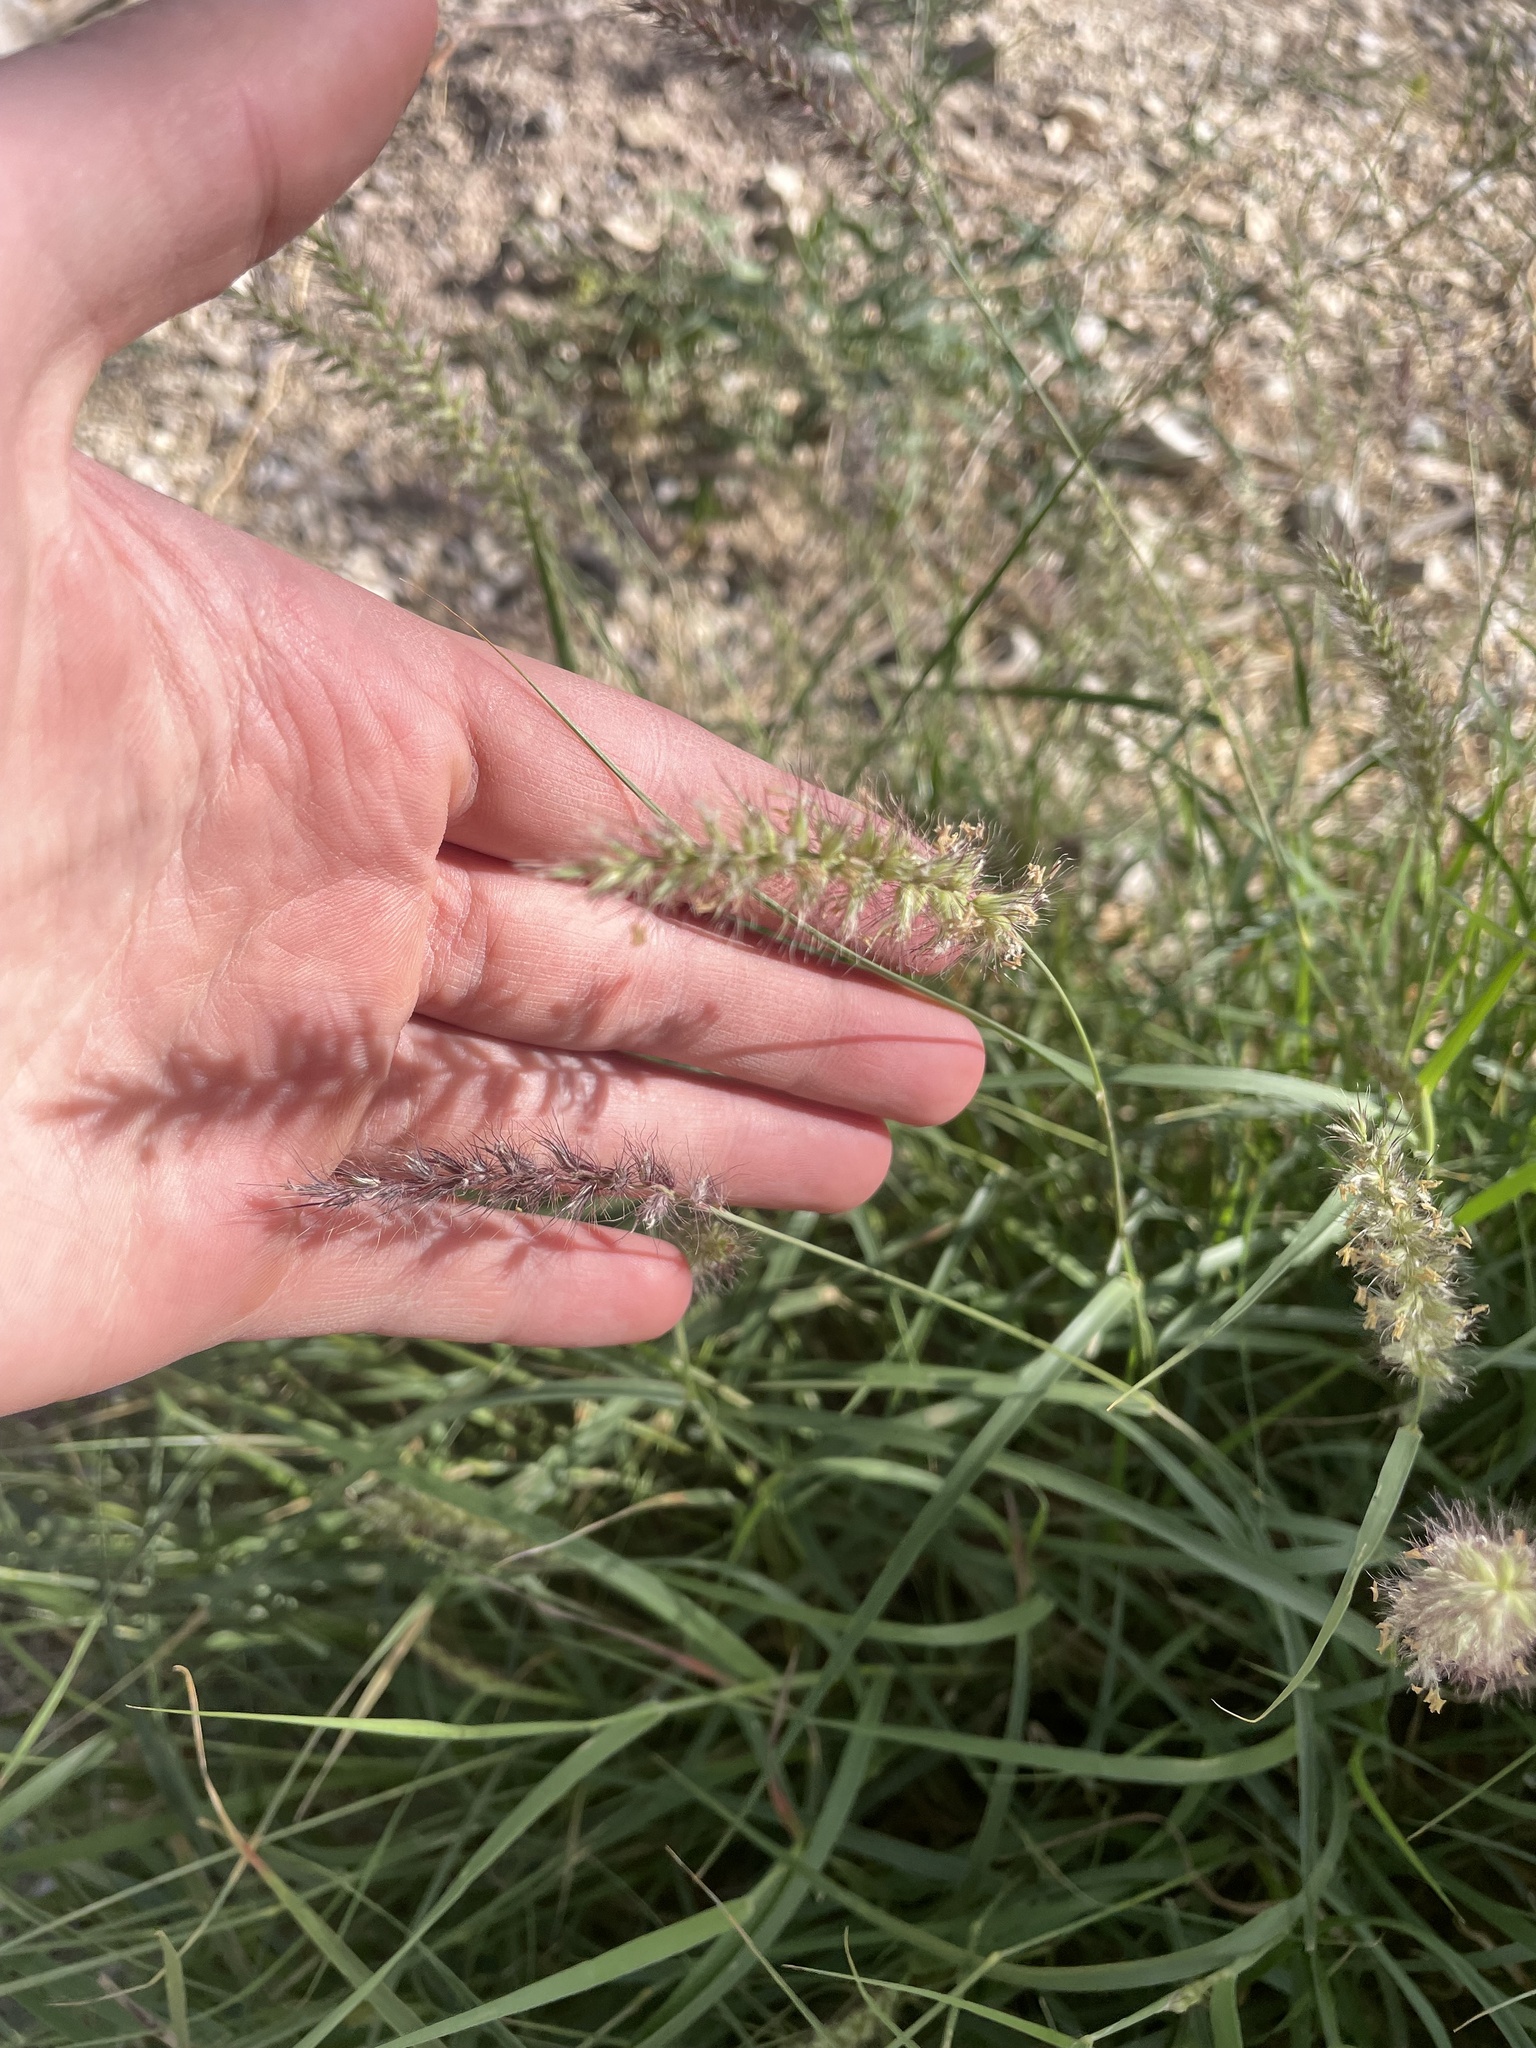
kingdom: Plantae
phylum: Tracheophyta
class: Liliopsida
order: Poales
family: Poaceae
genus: Cenchrus
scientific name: Cenchrus ciliaris
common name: Buffelgrass
